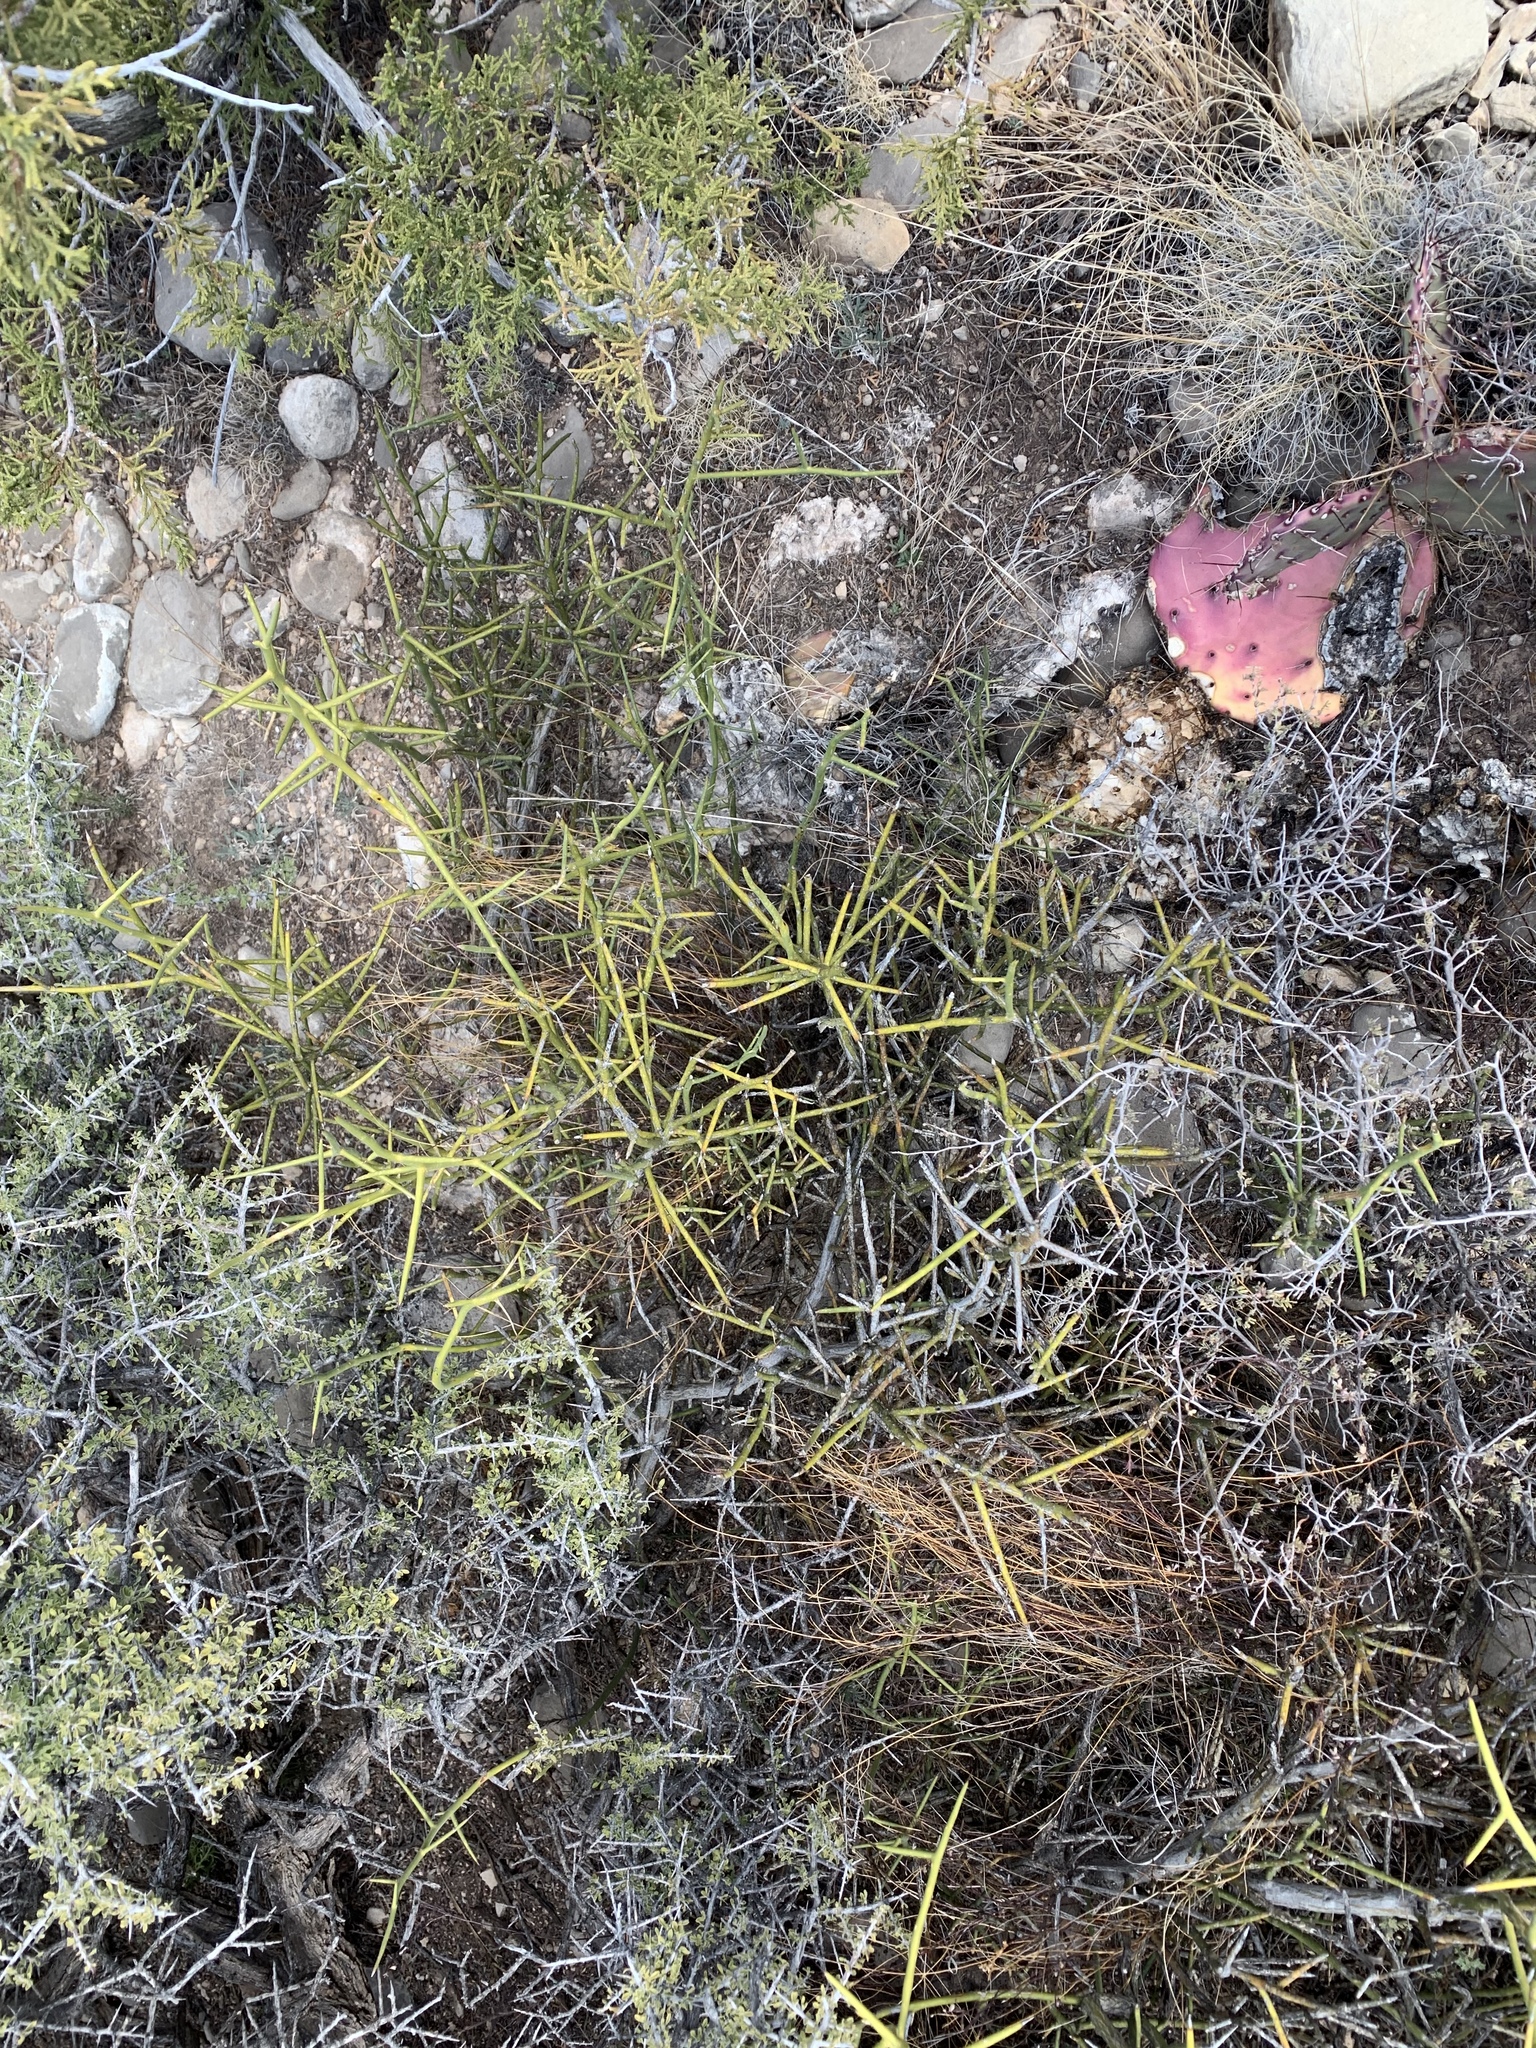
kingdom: Plantae
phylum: Tracheophyta
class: Magnoliopsida
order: Brassicales
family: Koeberliniaceae
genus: Koeberlinia
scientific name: Koeberlinia spinosa
